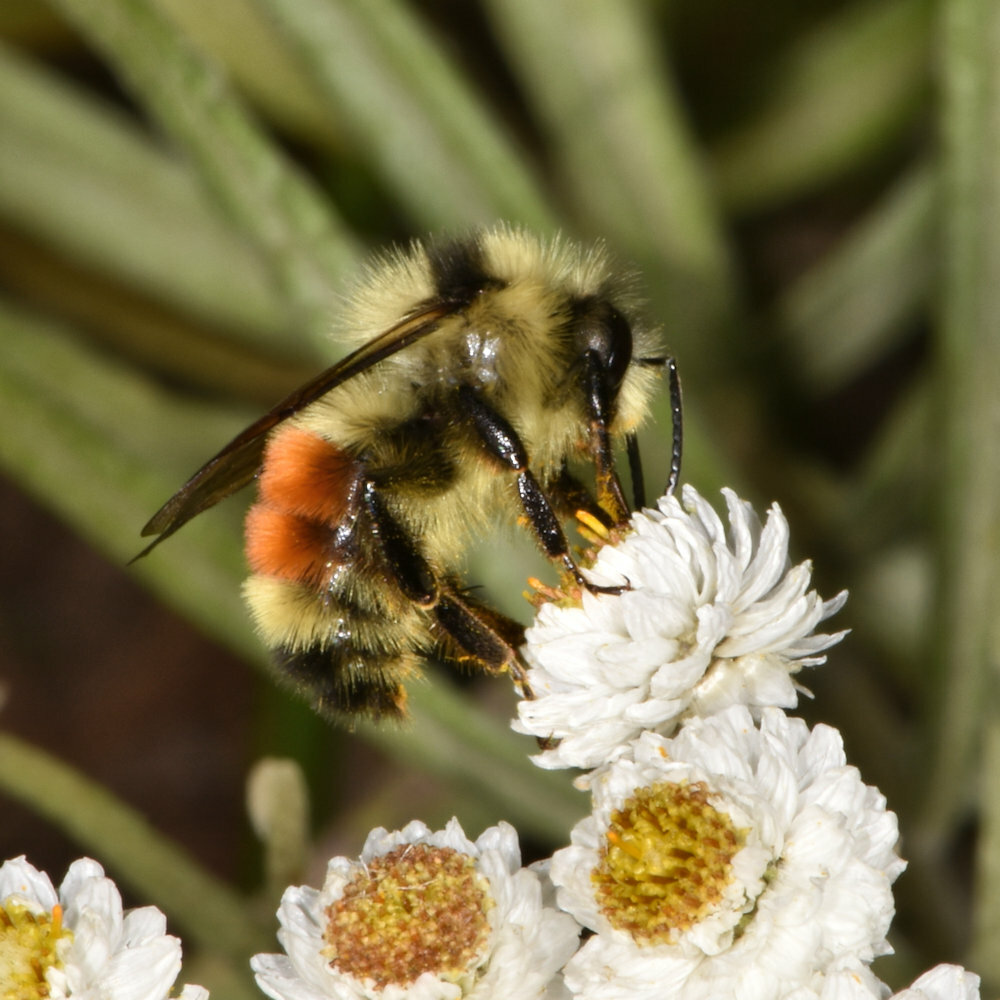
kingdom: Animalia
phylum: Arthropoda
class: Insecta
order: Hymenoptera
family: Apidae
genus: Bombus
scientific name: Bombus ternarius
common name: Tri-colored bumble bee
